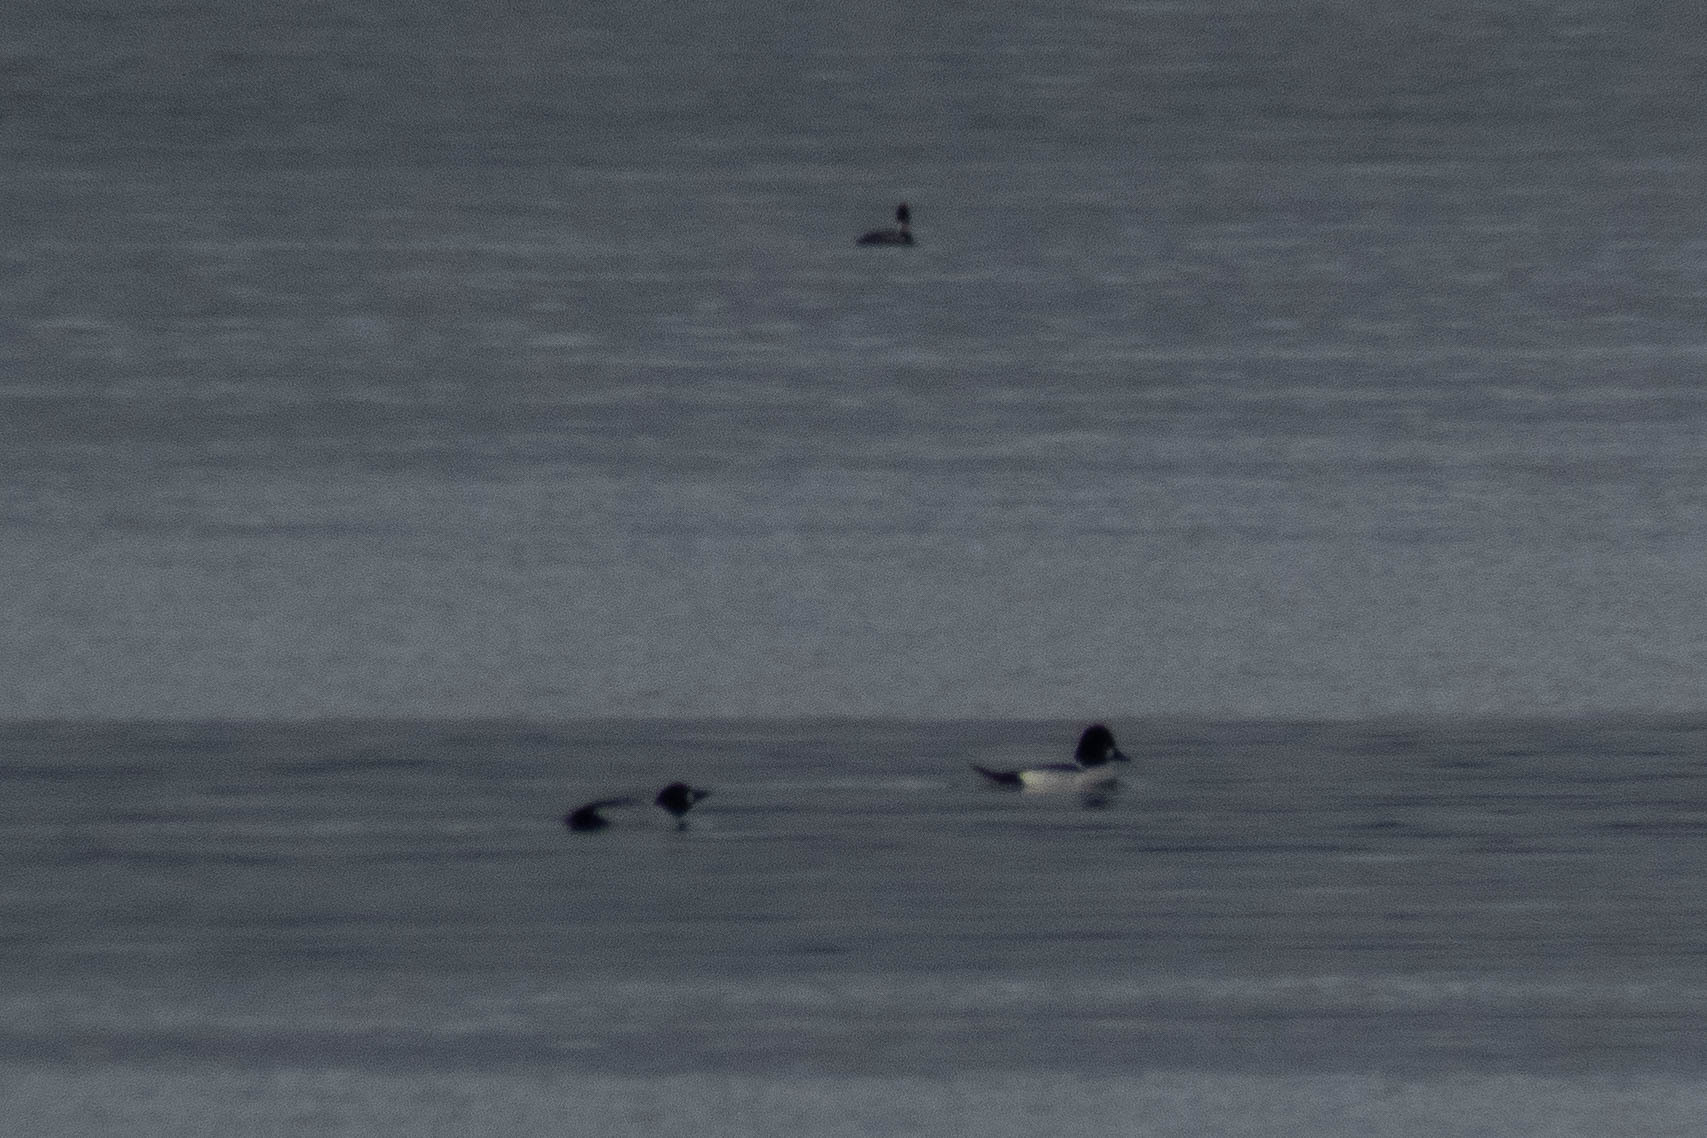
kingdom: Animalia
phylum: Chordata
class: Aves
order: Anseriformes
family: Anatidae
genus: Bucephala
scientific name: Bucephala clangula
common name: Common goldeneye
